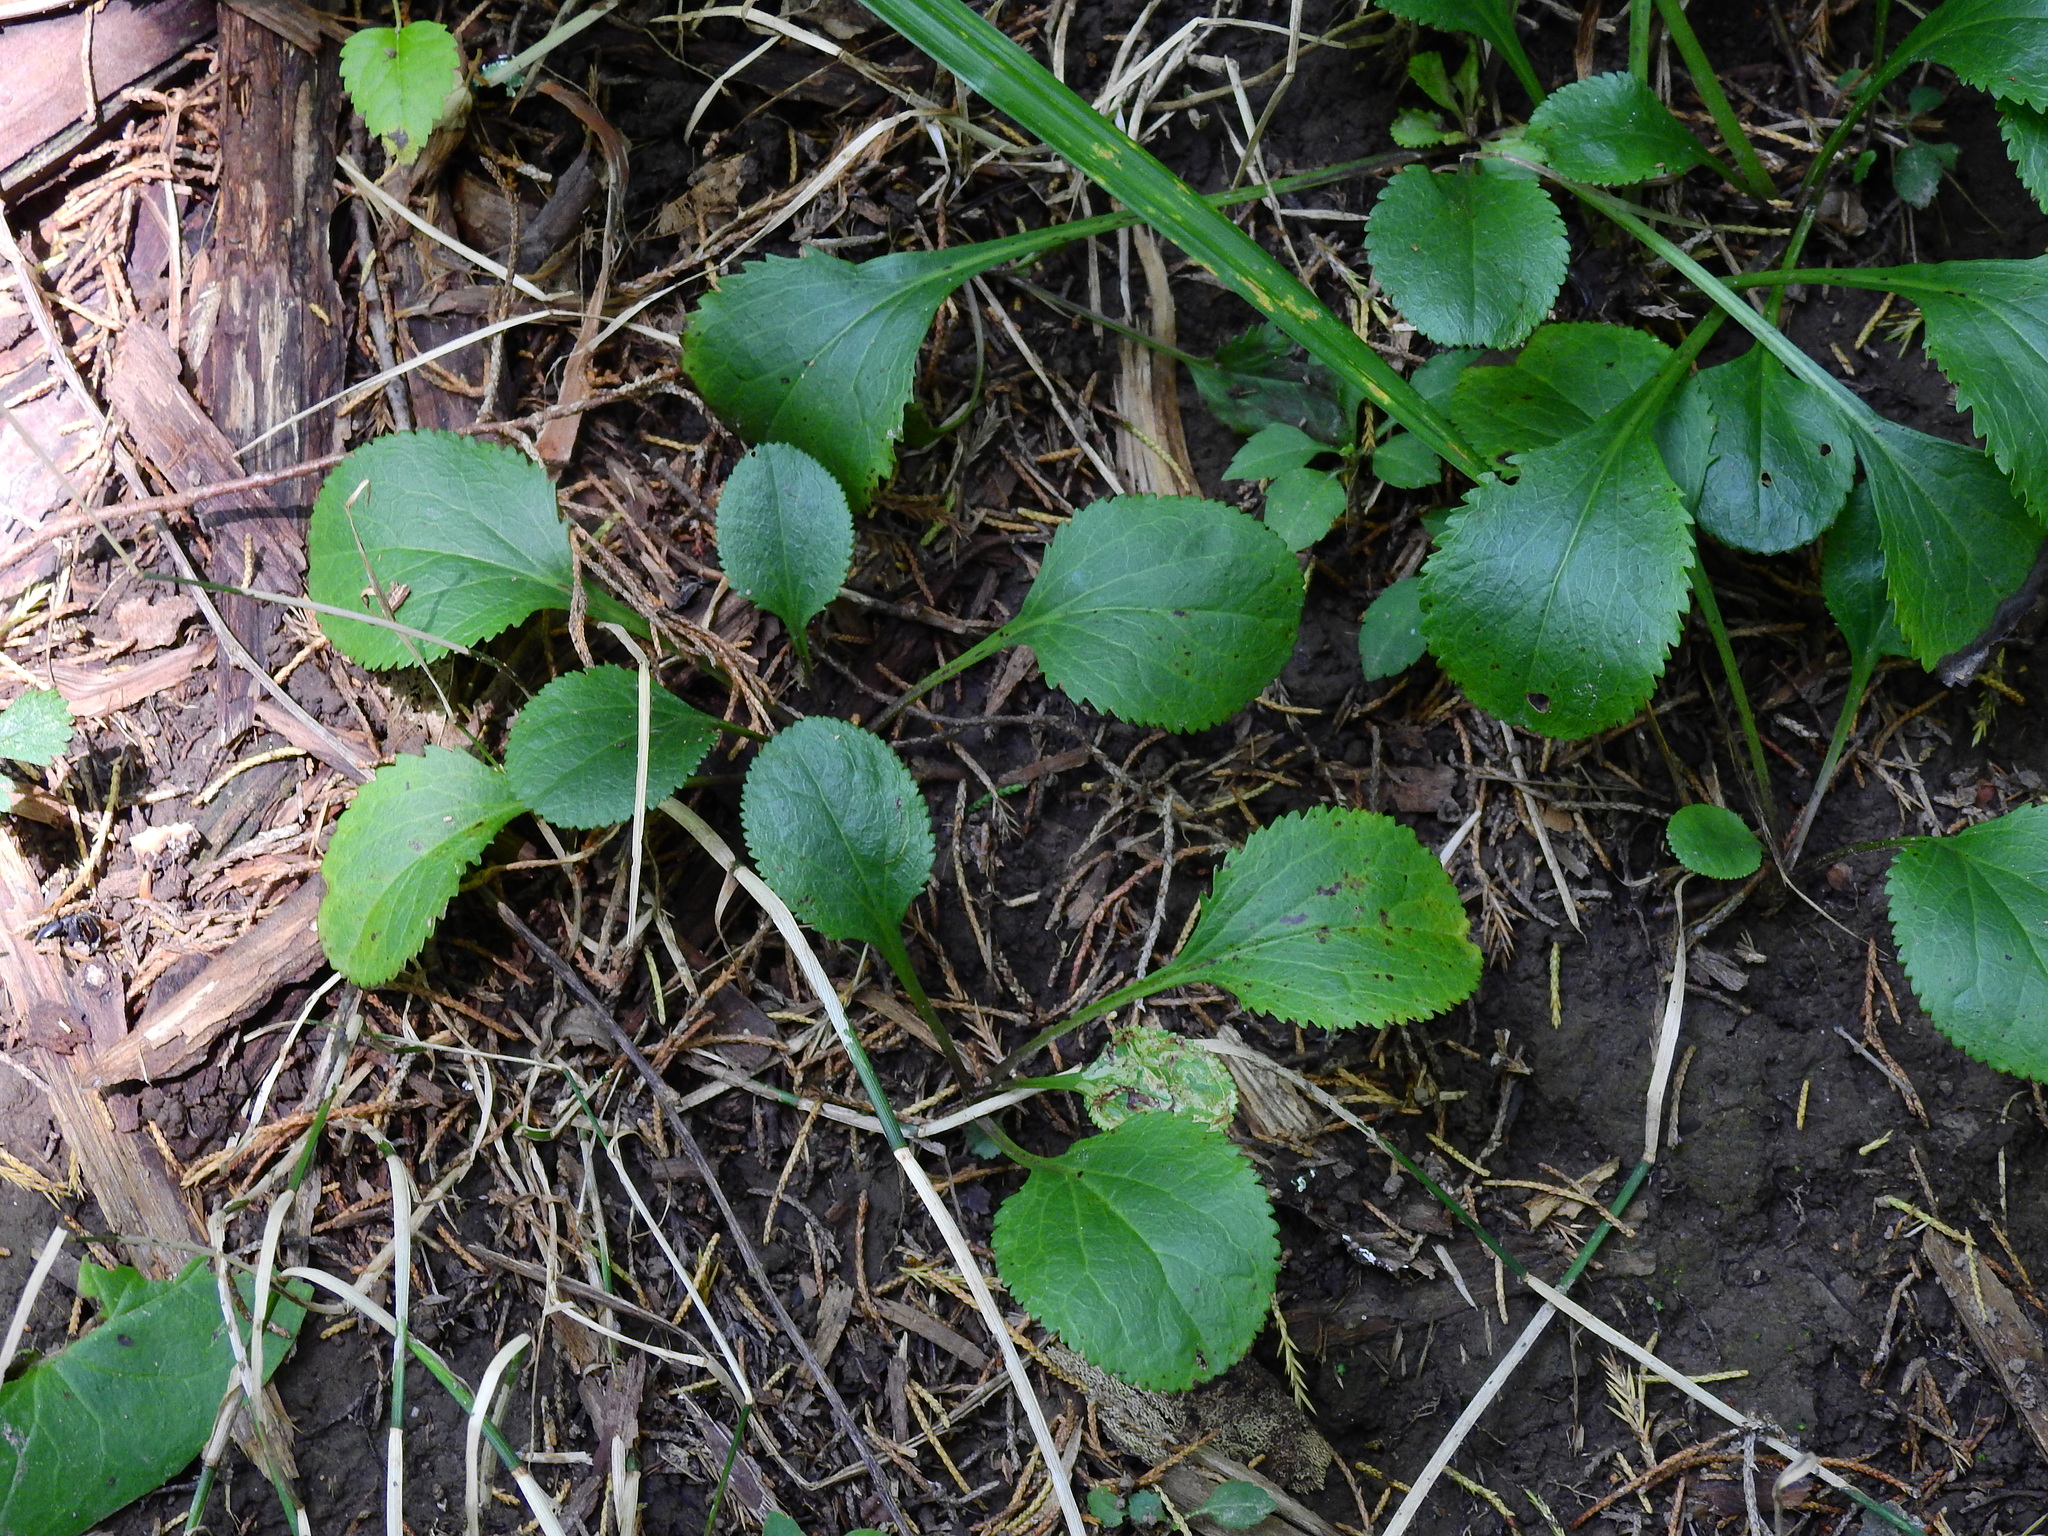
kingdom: Plantae
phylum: Tracheophyta
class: Magnoliopsida
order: Asterales
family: Asteraceae
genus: Packera
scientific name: Packera obovata
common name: Round-leaf ragwort
